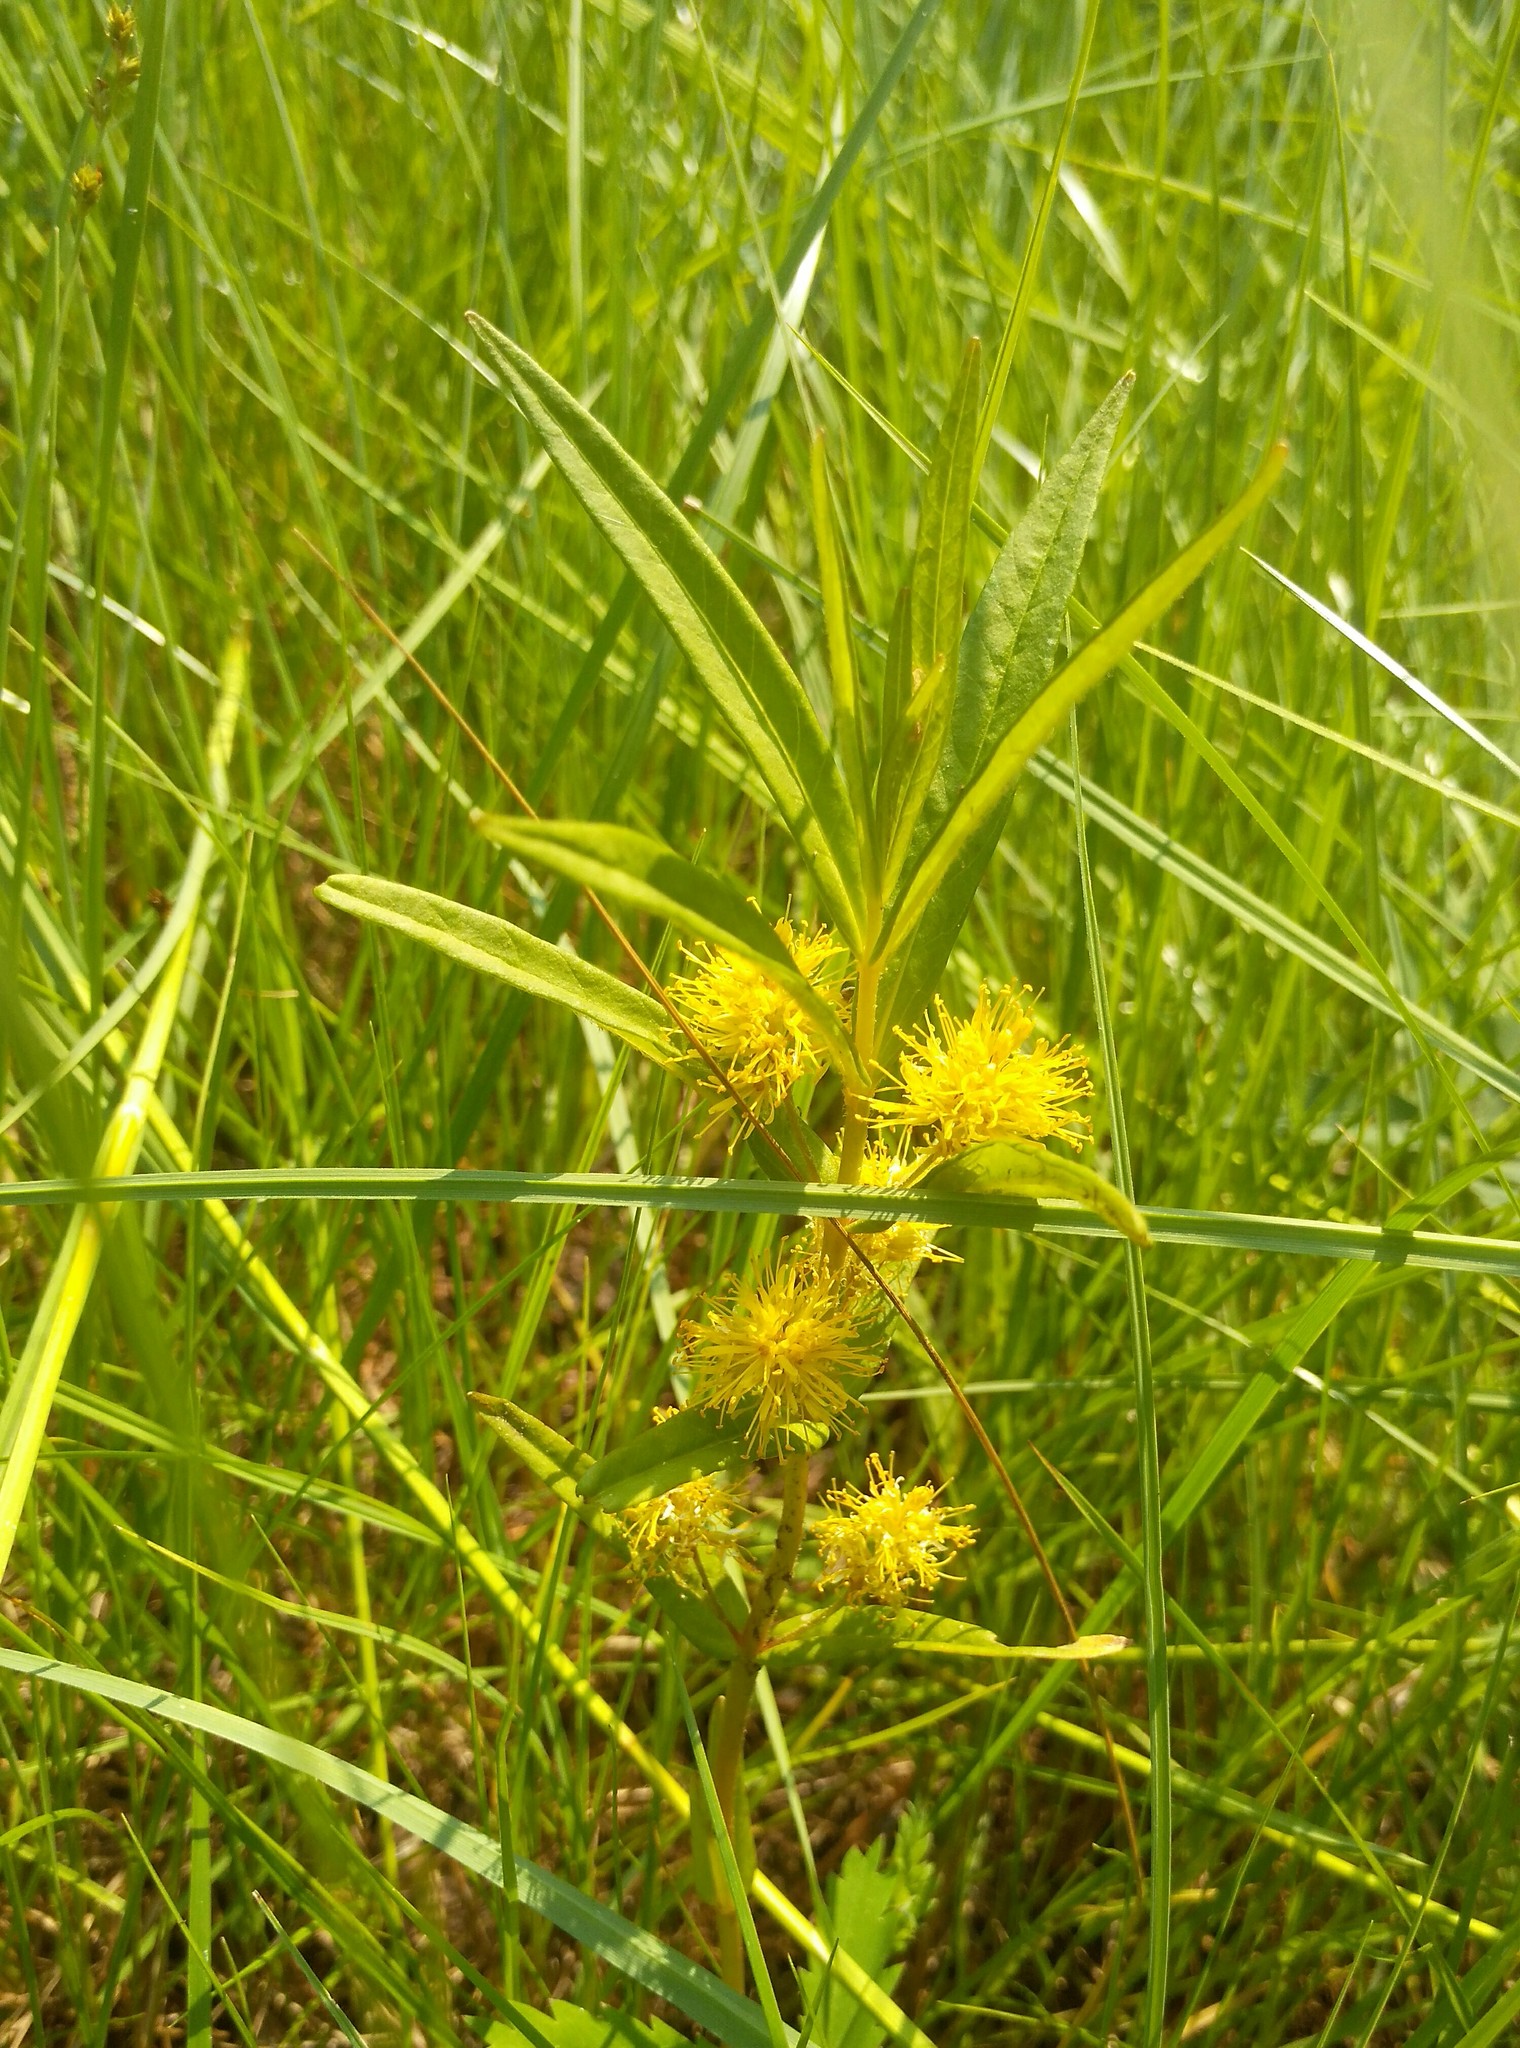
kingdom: Plantae
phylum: Tracheophyta
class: Magnoliopsida
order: Ericales
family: Primulaceae
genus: Lysimachia
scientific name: Lysimachia thyrsiflora
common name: Tufted loosestrife
